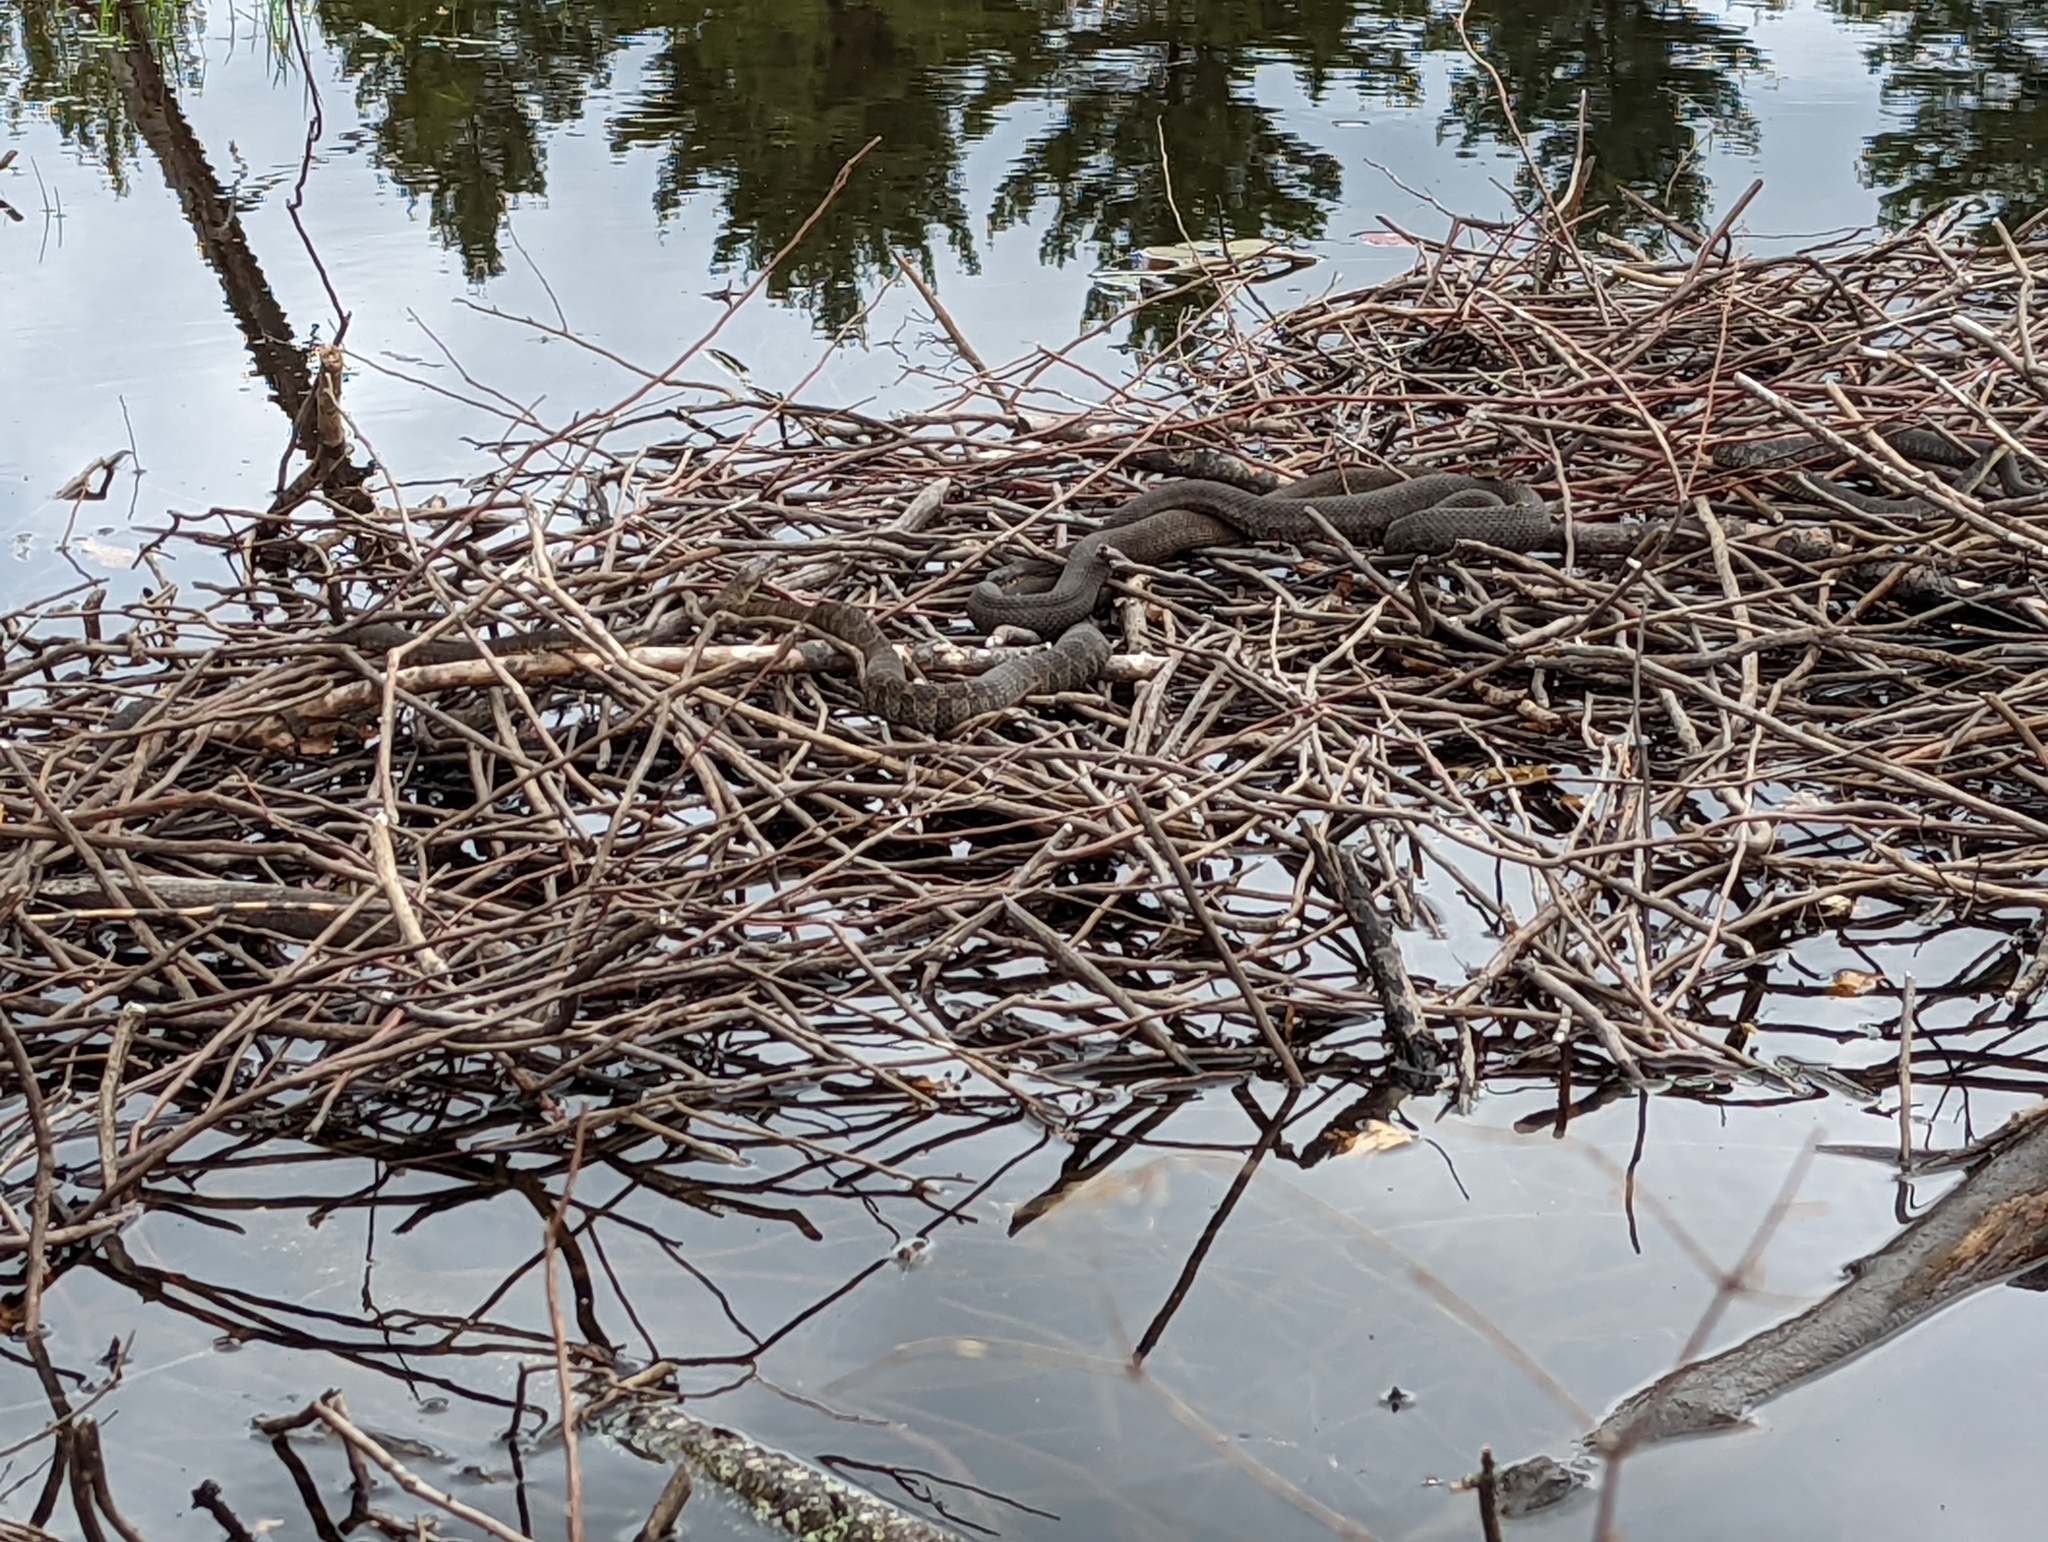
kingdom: Animalia
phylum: Chordata
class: Squamata
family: Colubridae
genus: Nerodia
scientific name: Nerodia sipedon
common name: Northern water snake
